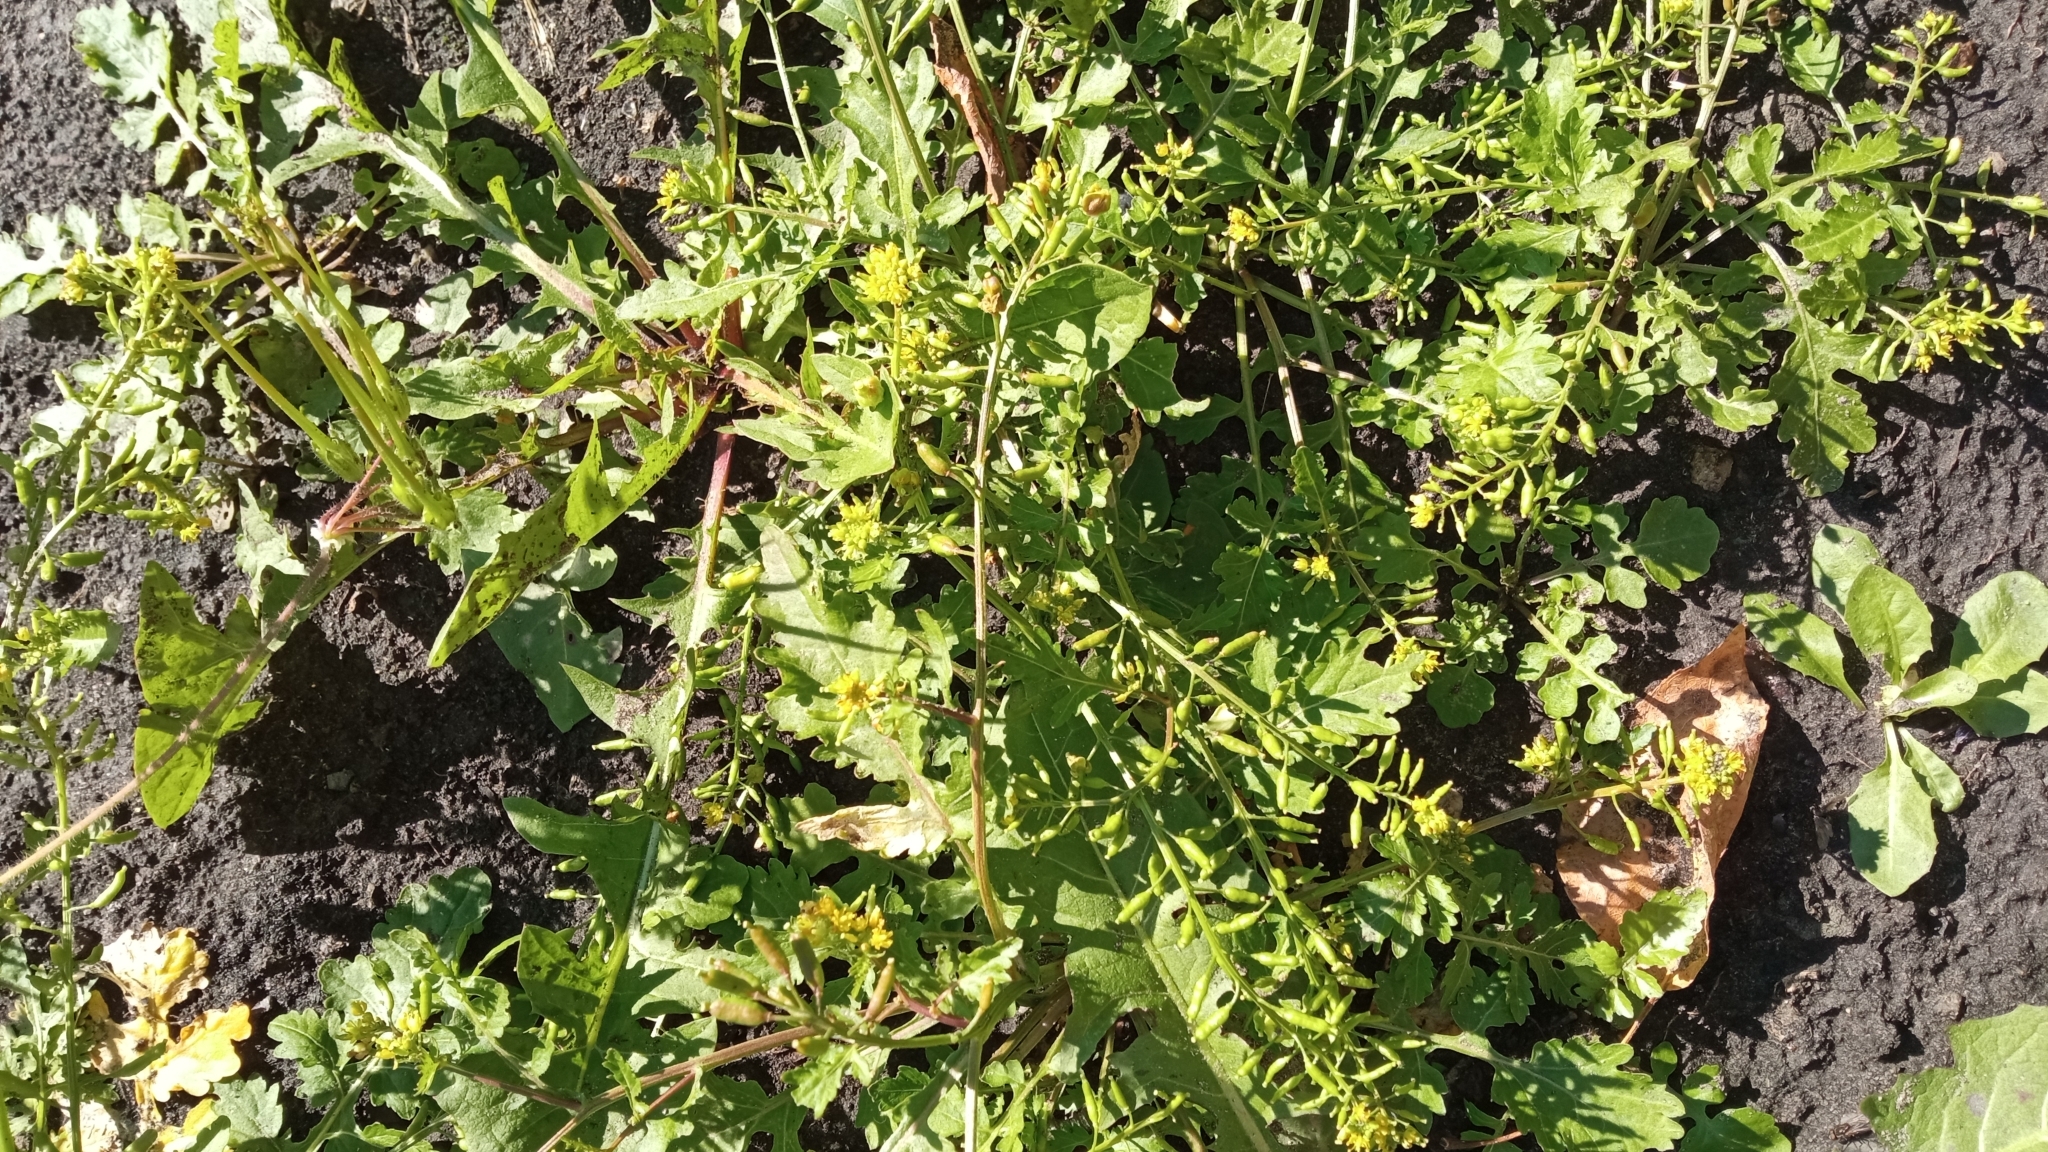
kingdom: Plantae
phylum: Tracheophyta
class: Magnoliopsida
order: Brassicales
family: Brassicaceae
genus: Rorippa
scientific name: Rorippa palustris
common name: Marsh yellow-cress
